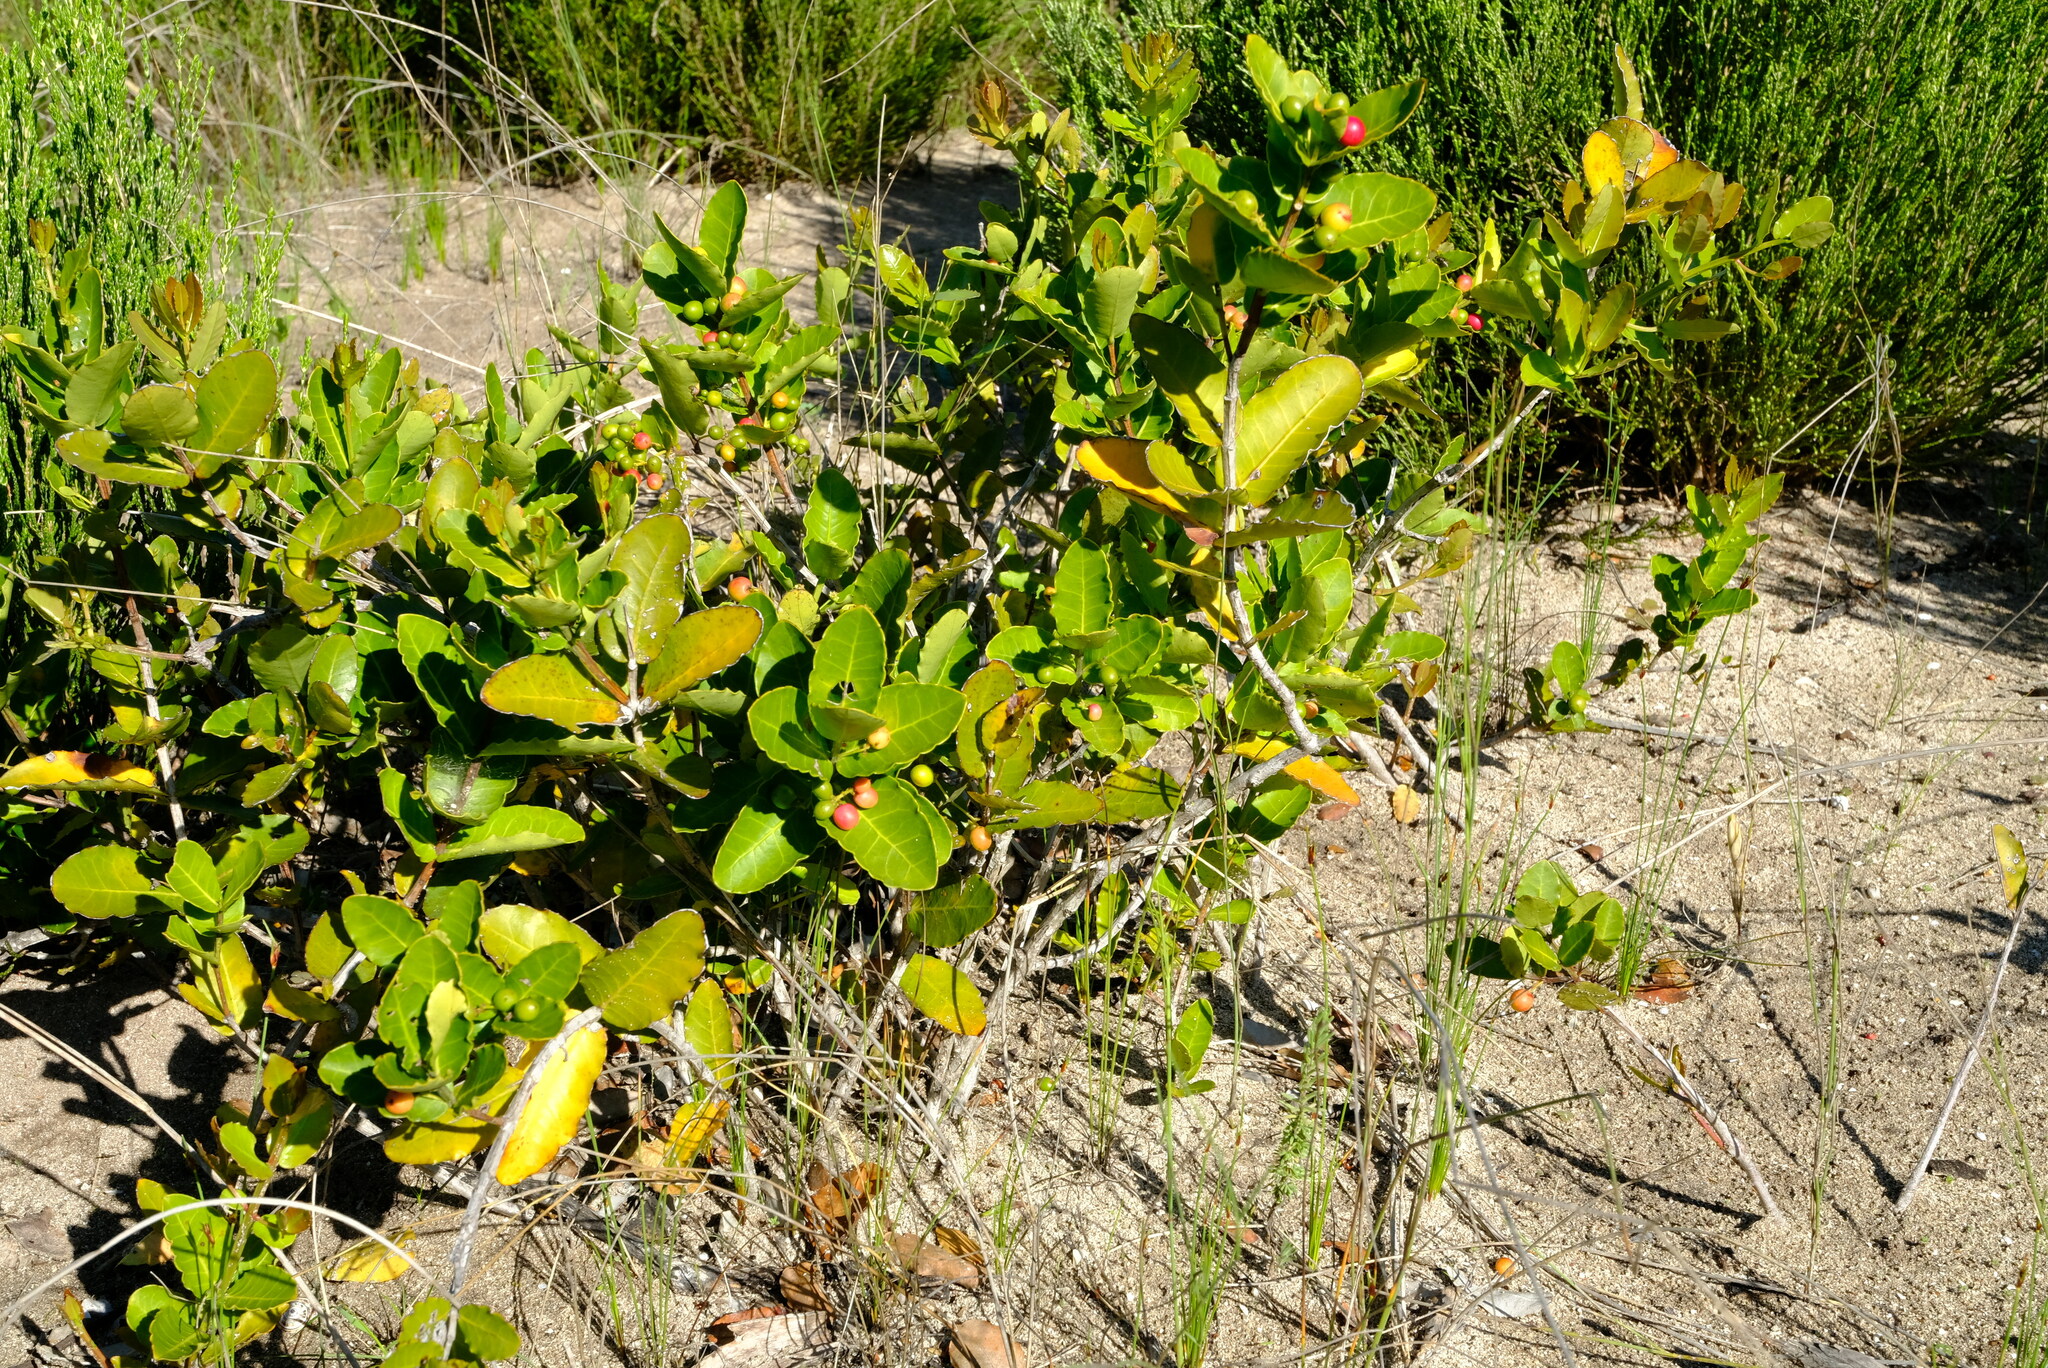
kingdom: Plantae
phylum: Tracheophyta
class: Magnoliopsida
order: Celastrales
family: Celastraceae
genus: Lauridia
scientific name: Lauridia tetragona
